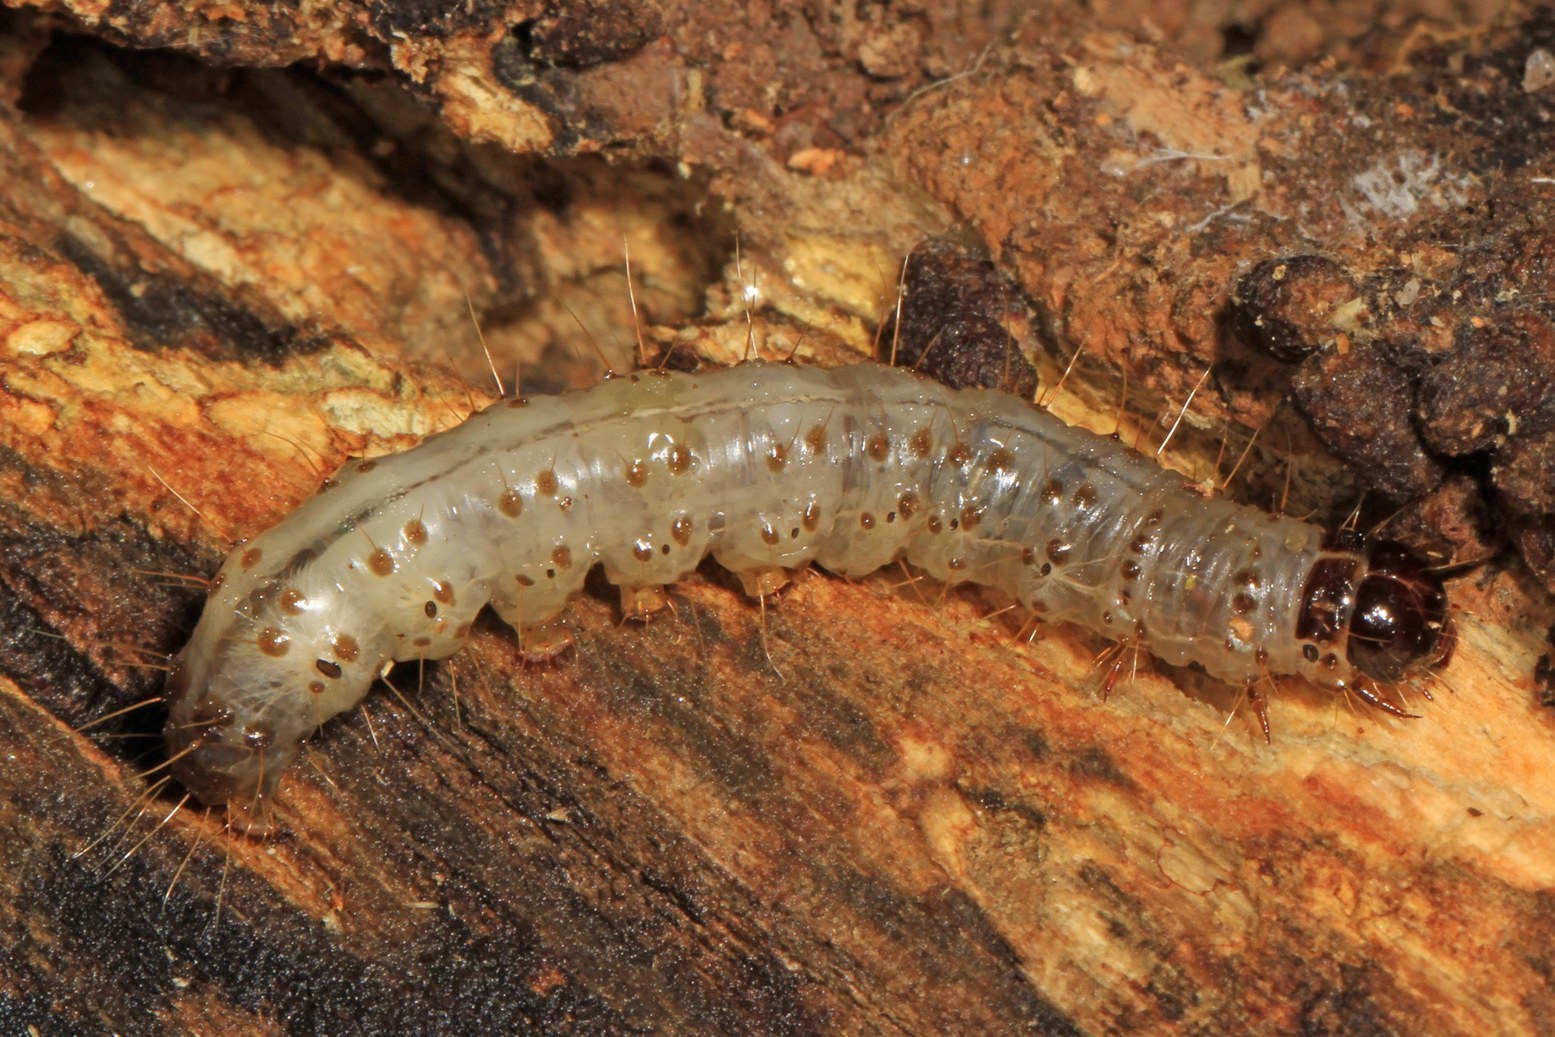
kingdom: Animalia
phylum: Arthropoda
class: Insecta
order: Lepidoptera
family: Erebidae
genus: Scolecocampa
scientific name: Scolecocampa liburna
